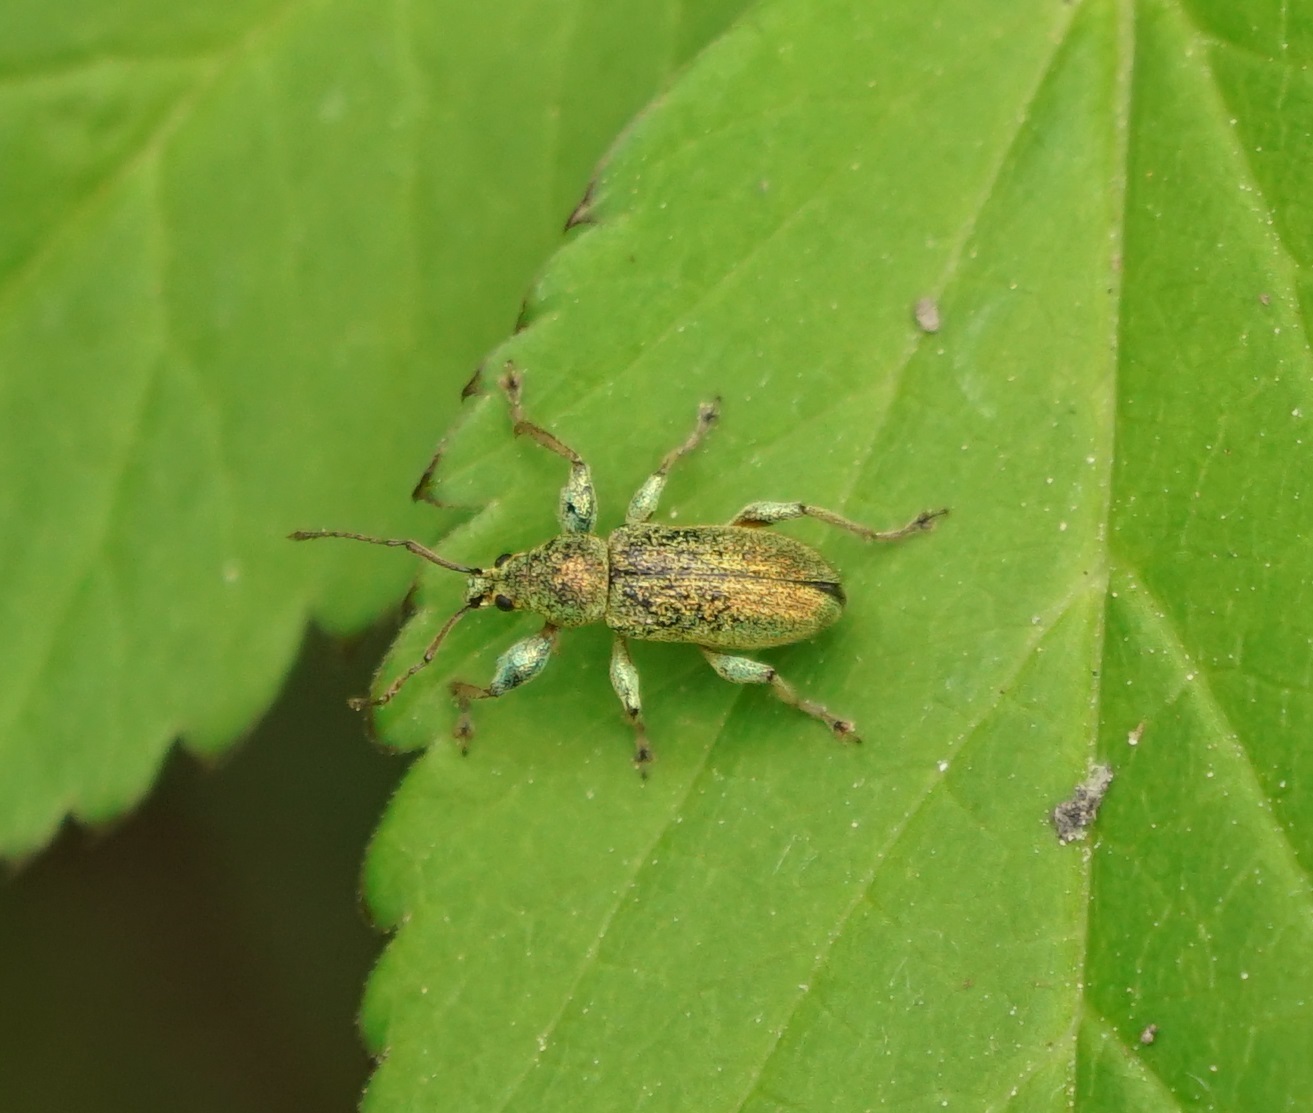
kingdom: Animalia
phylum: Arthropoda
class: Insecta
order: Coleoptera
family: Curculionidae
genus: Phyllobius
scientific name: Phyllobius arborator
